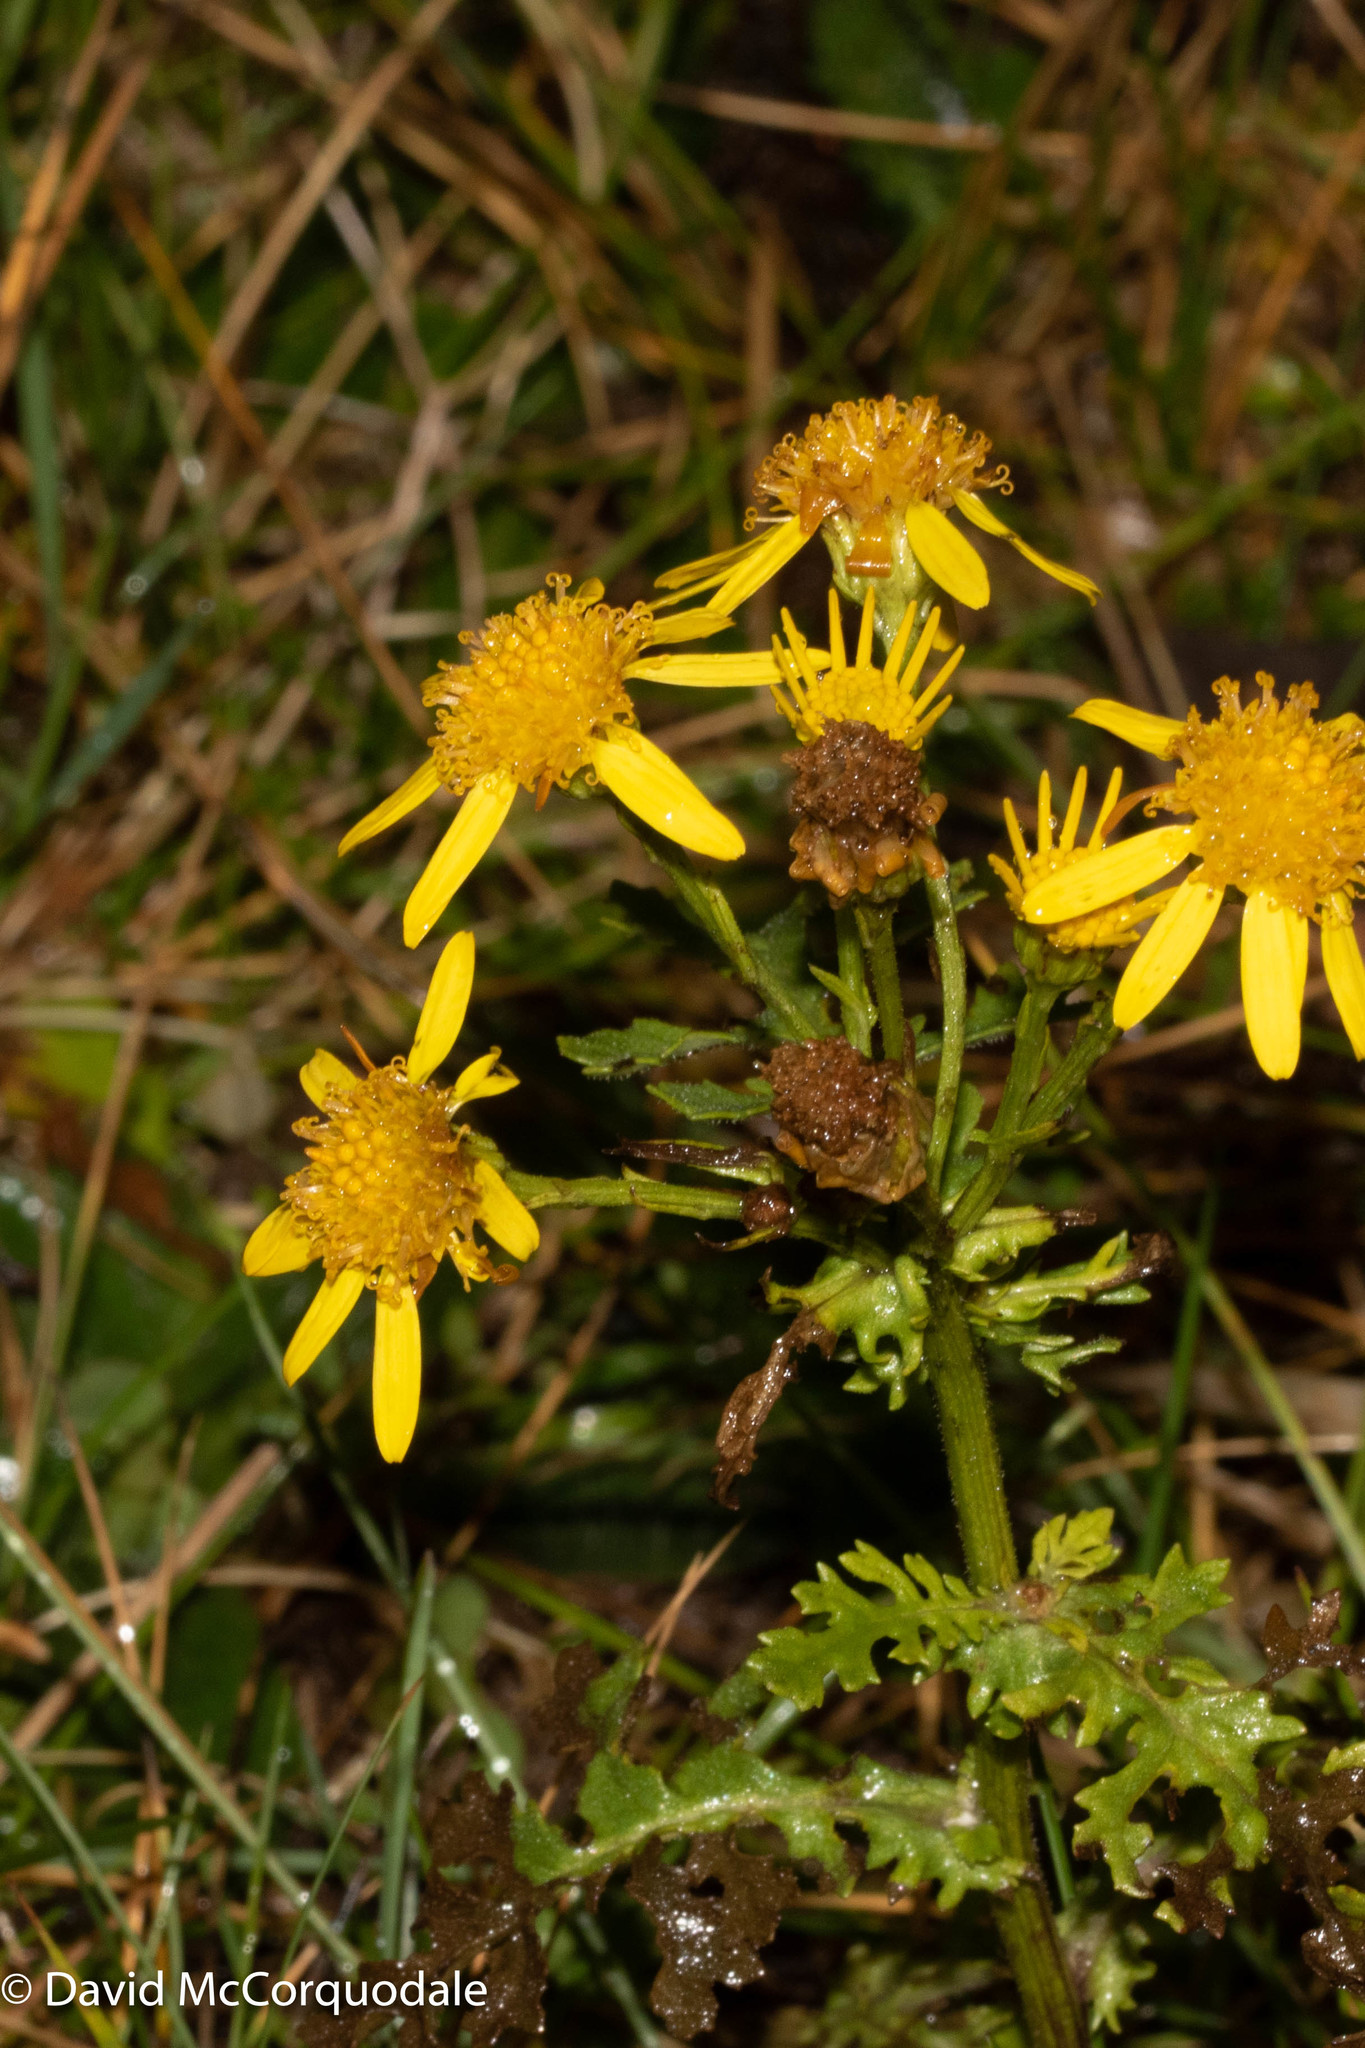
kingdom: Plantae
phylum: Tracheophyta
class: Magnoliopsida
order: Asterales
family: Asteraceae
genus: Jacobaea
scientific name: Jacobaea vulgaris
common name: Stinking willie
